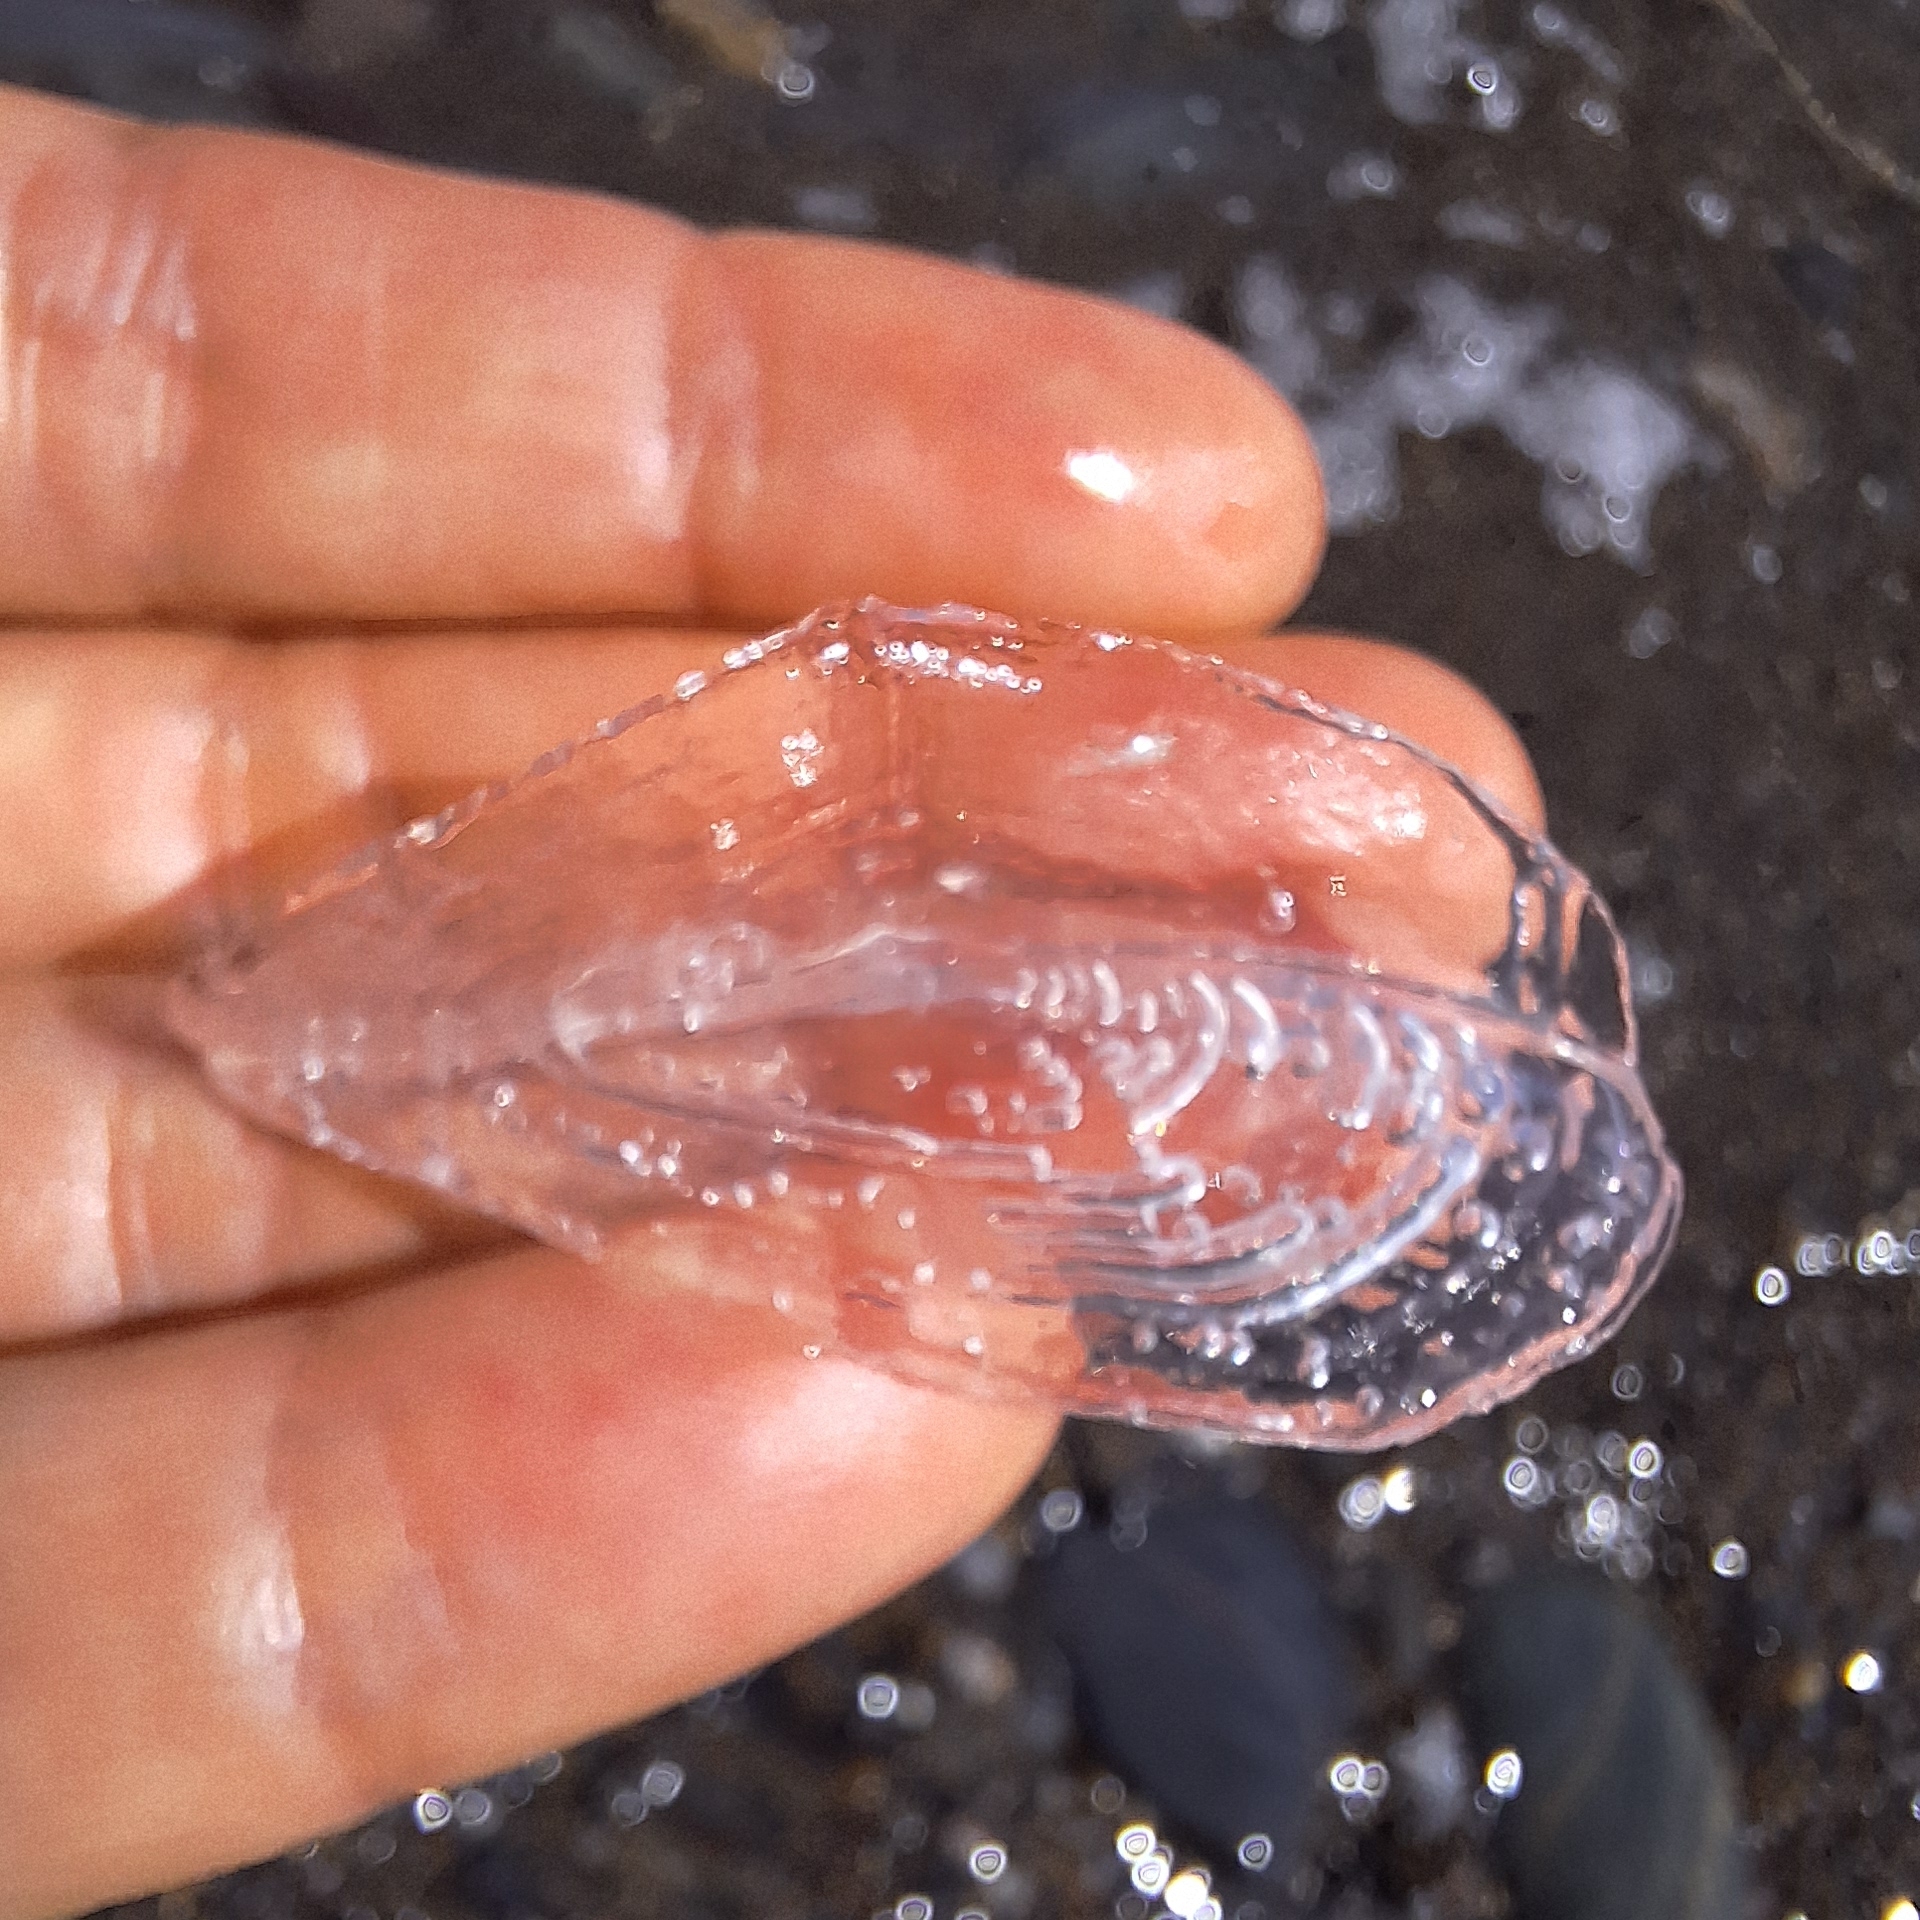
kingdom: Animalia
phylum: Cnidaria
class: Hydrozoa
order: Anthoathecata
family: Porpitidae
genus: Velella
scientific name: Velella velella
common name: By-the-wind-sailor
